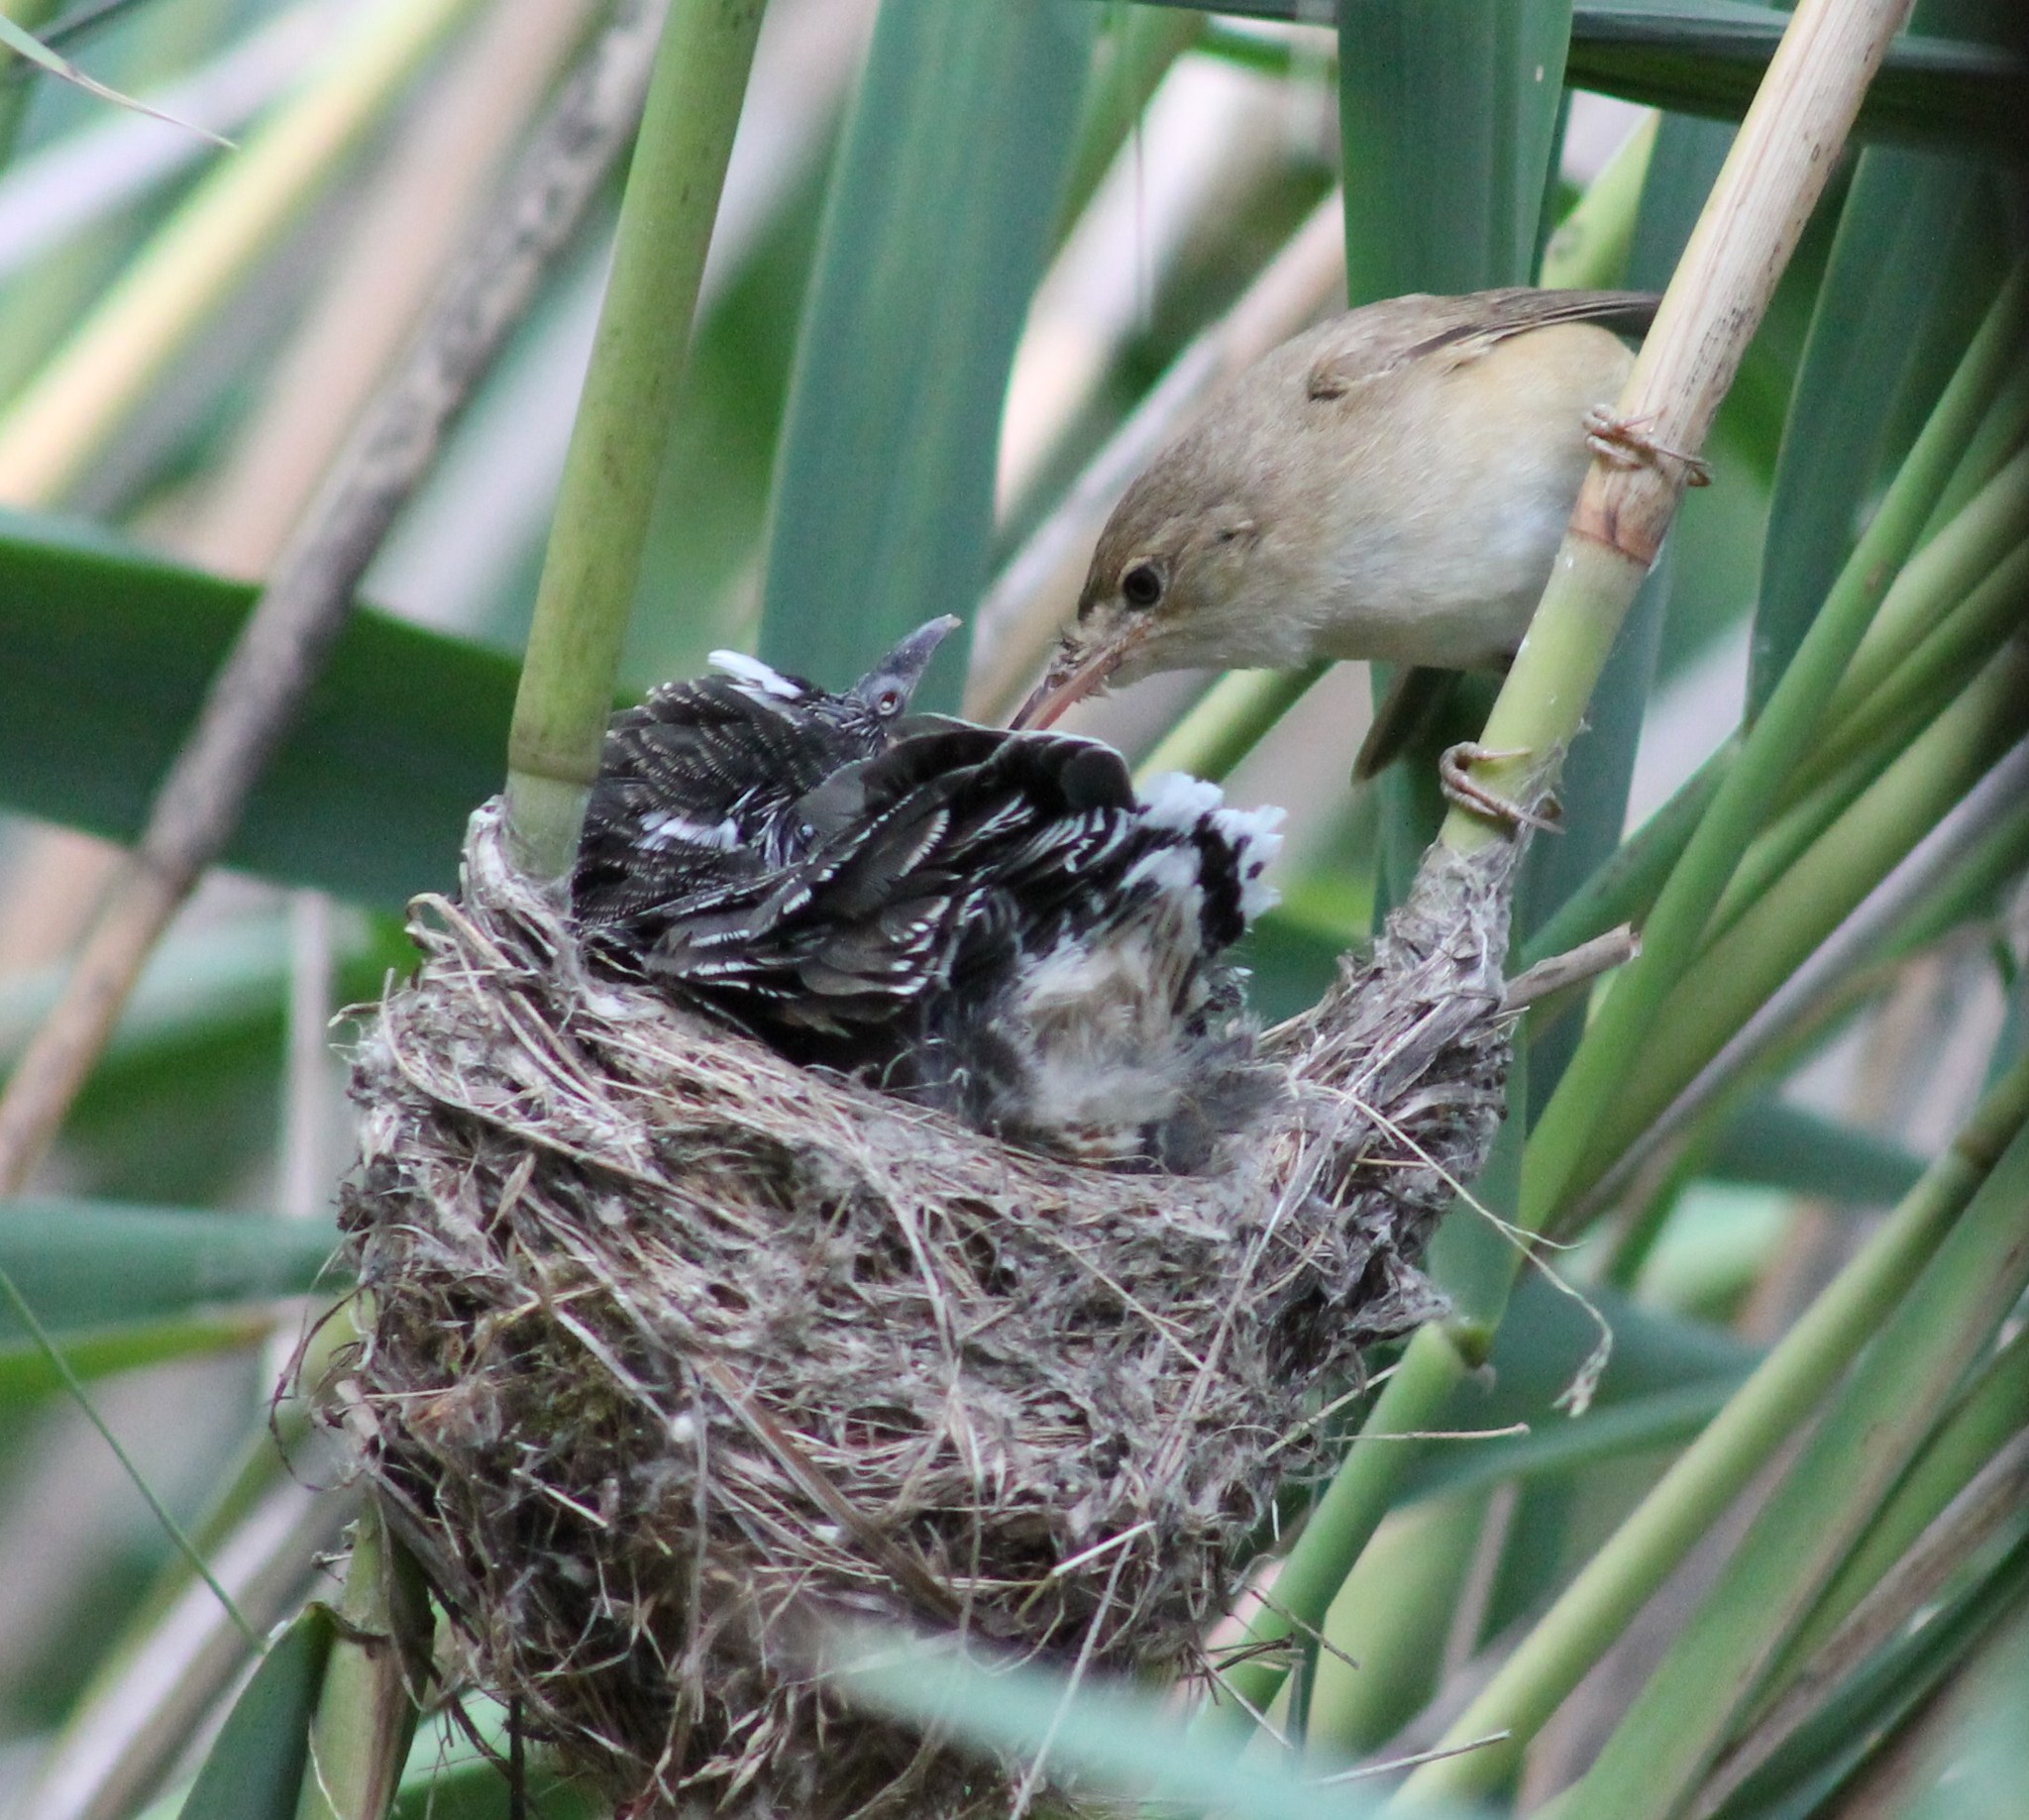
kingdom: Animalia
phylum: Chordata
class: Aves
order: Cuculiformes
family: Cuculidae
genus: Cuculus
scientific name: Cuculus canorus
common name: Common cuckoo
